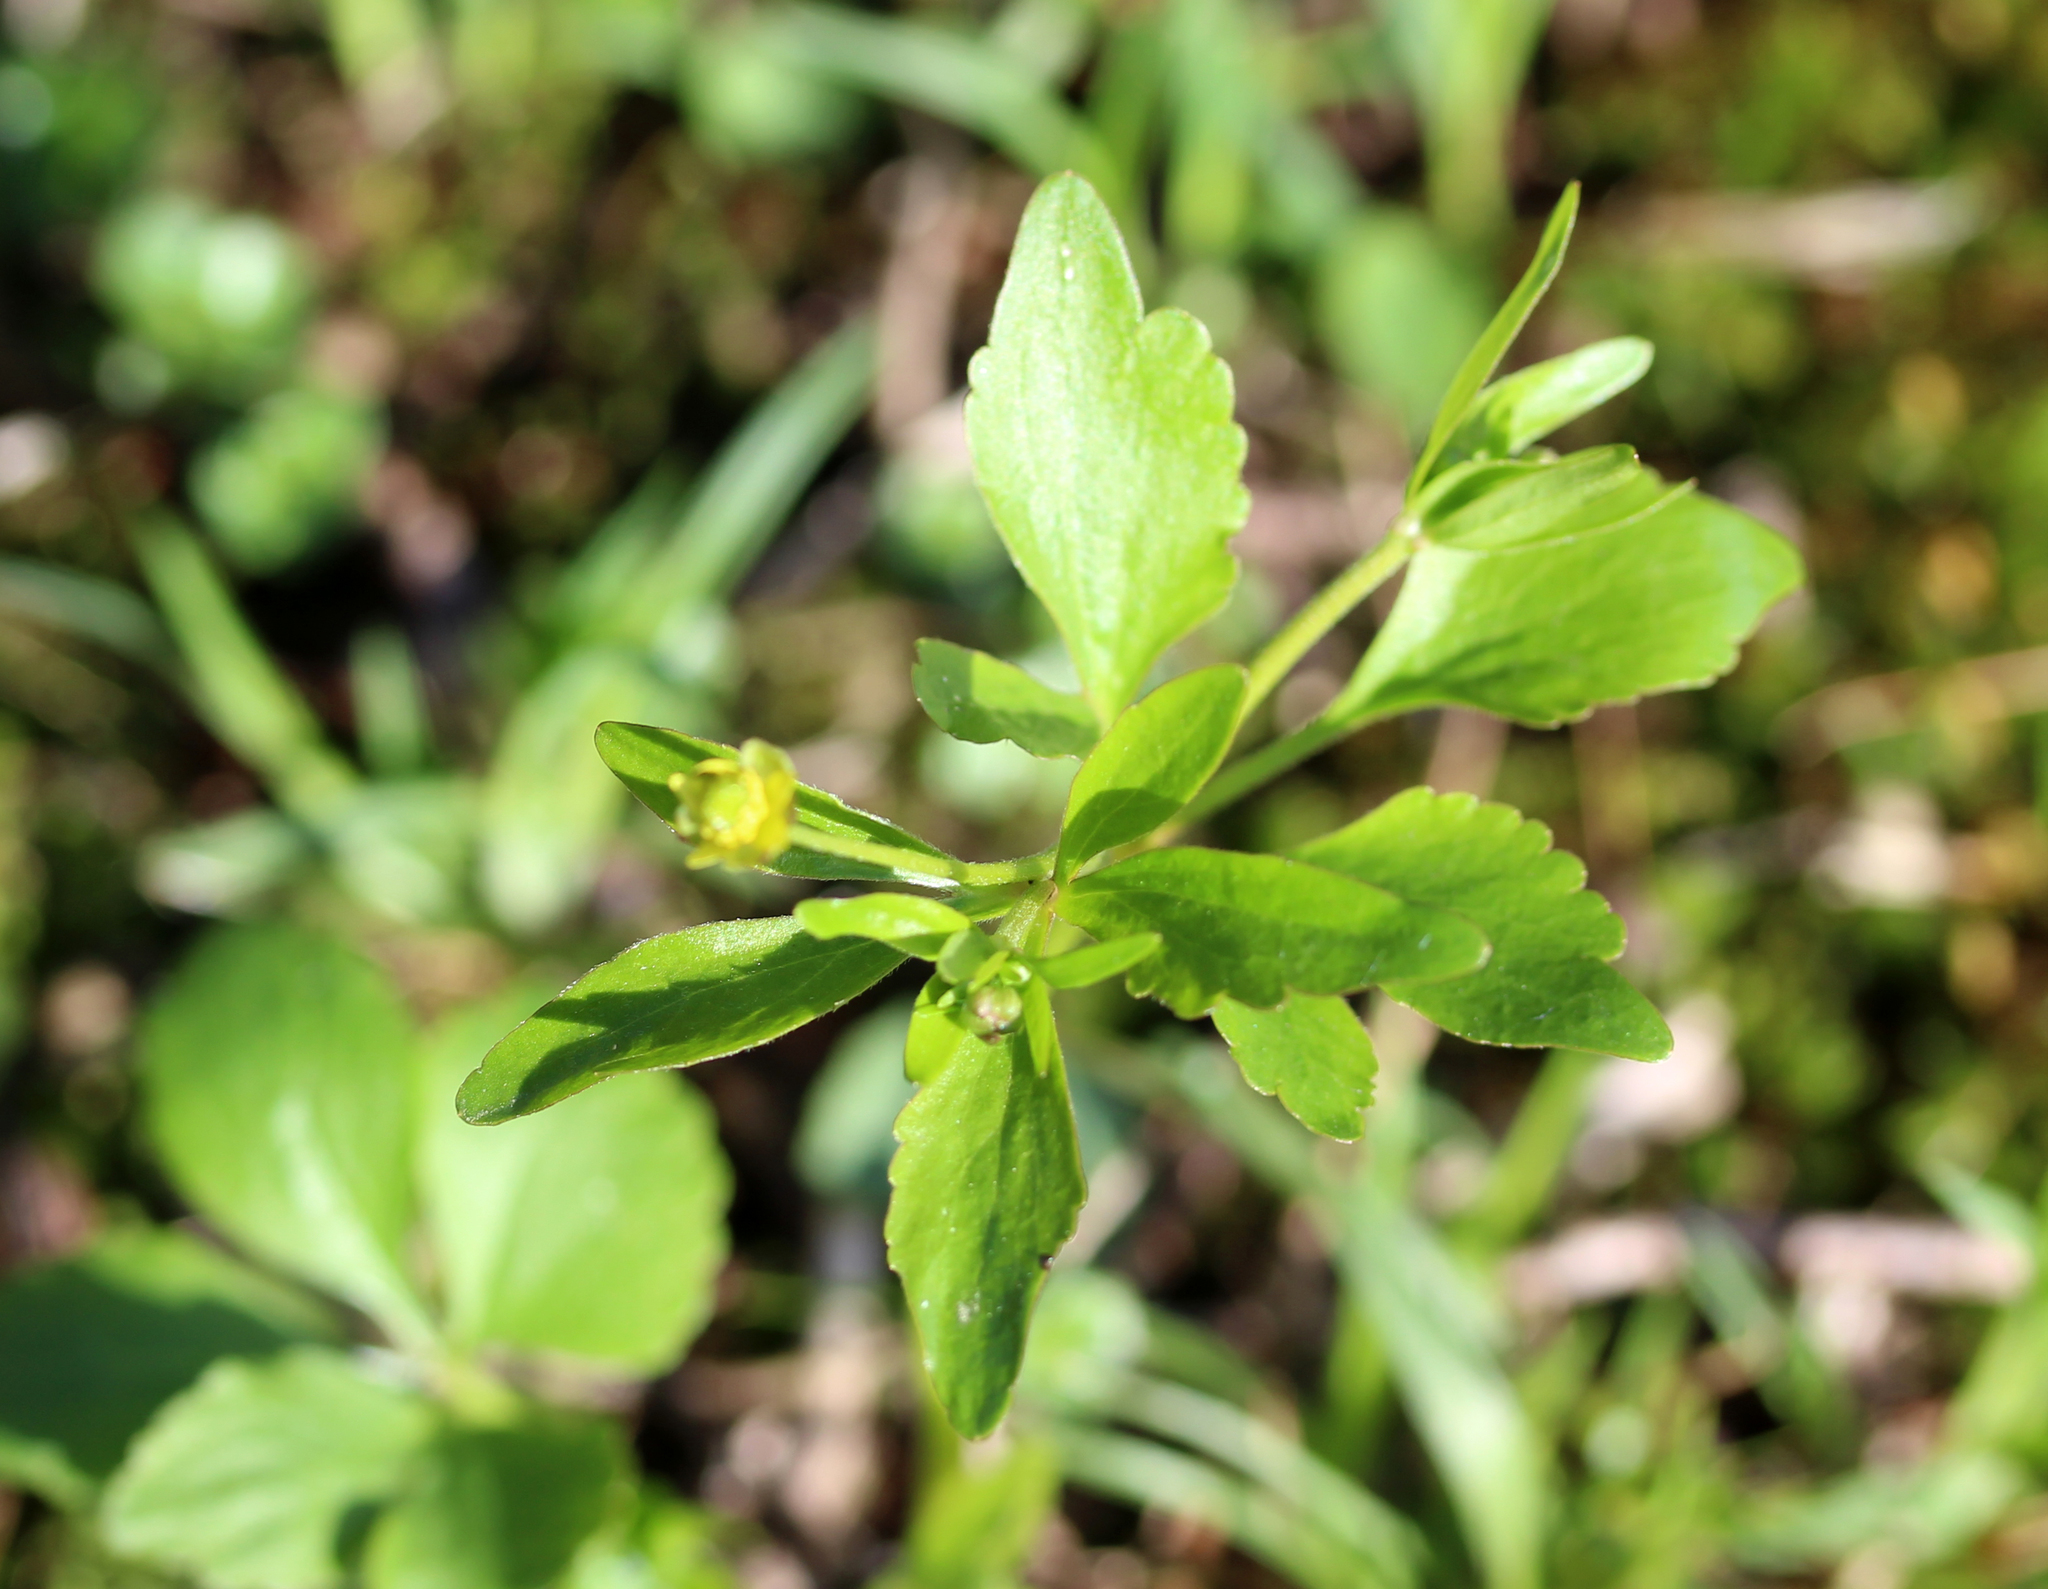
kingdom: Plantae
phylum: Tracheophyta
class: Magnoliopsida
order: Ranunculales
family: Ranunculaceae
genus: Ranunculus
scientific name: Ranunculus abortivus
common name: Early wood buttercup
